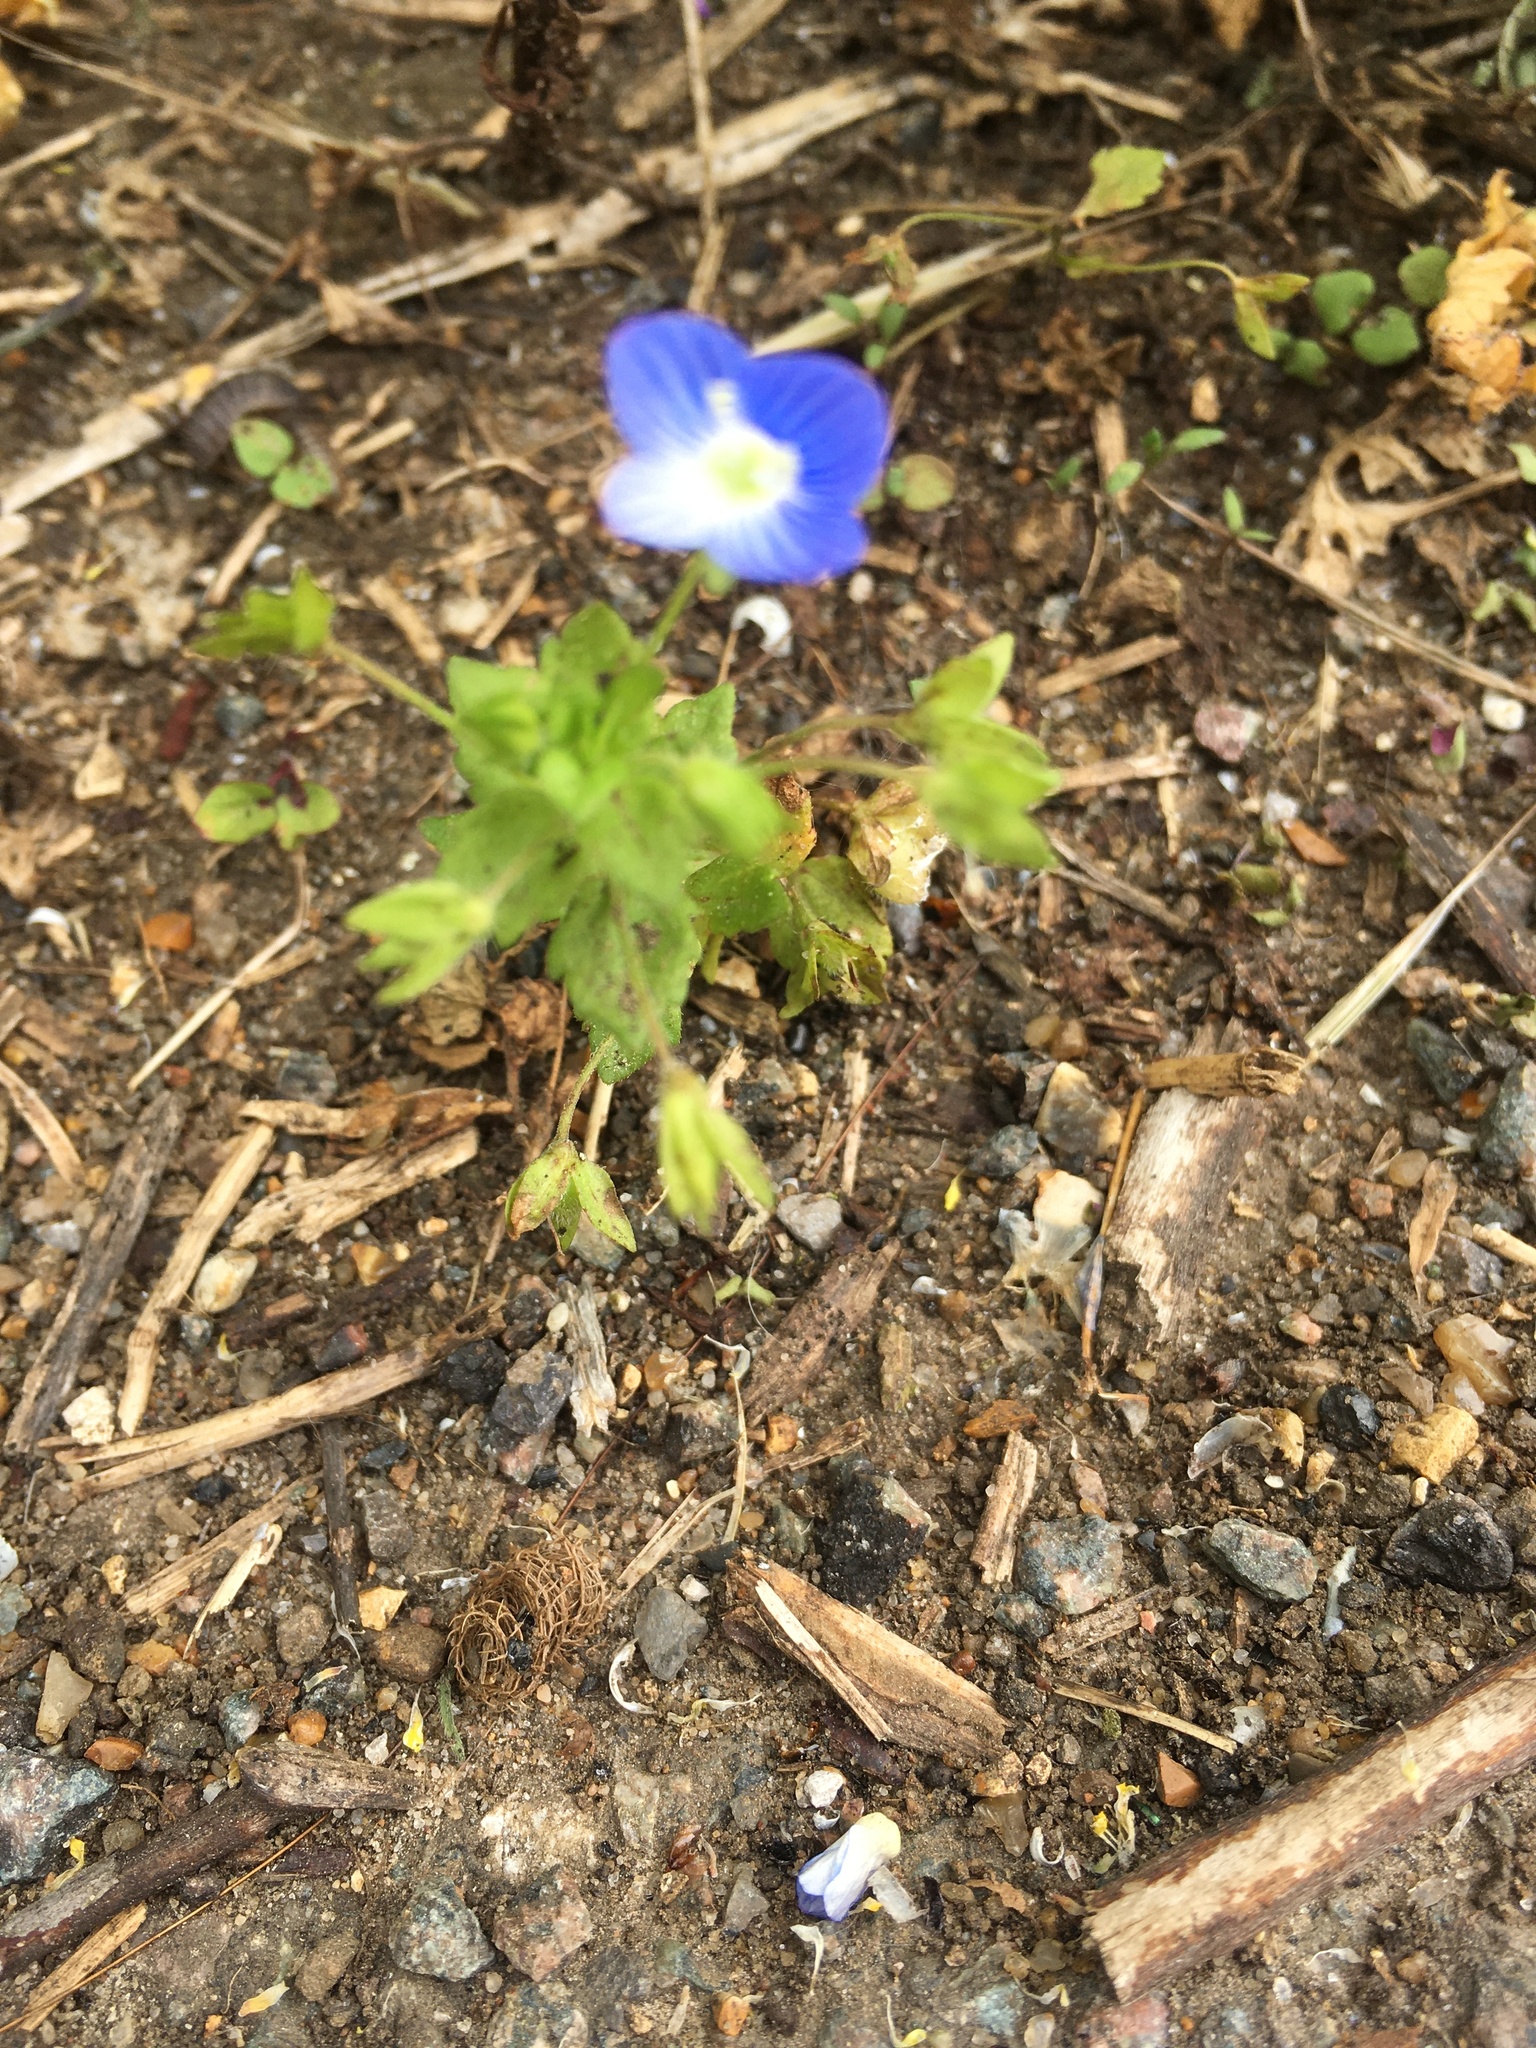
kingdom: Plantae
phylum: Tracheophyta
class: Magnoliopsida
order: Lamiales
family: Plantaginaceae
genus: Veronica
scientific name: Veronica persica
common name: Common field-speedwell
